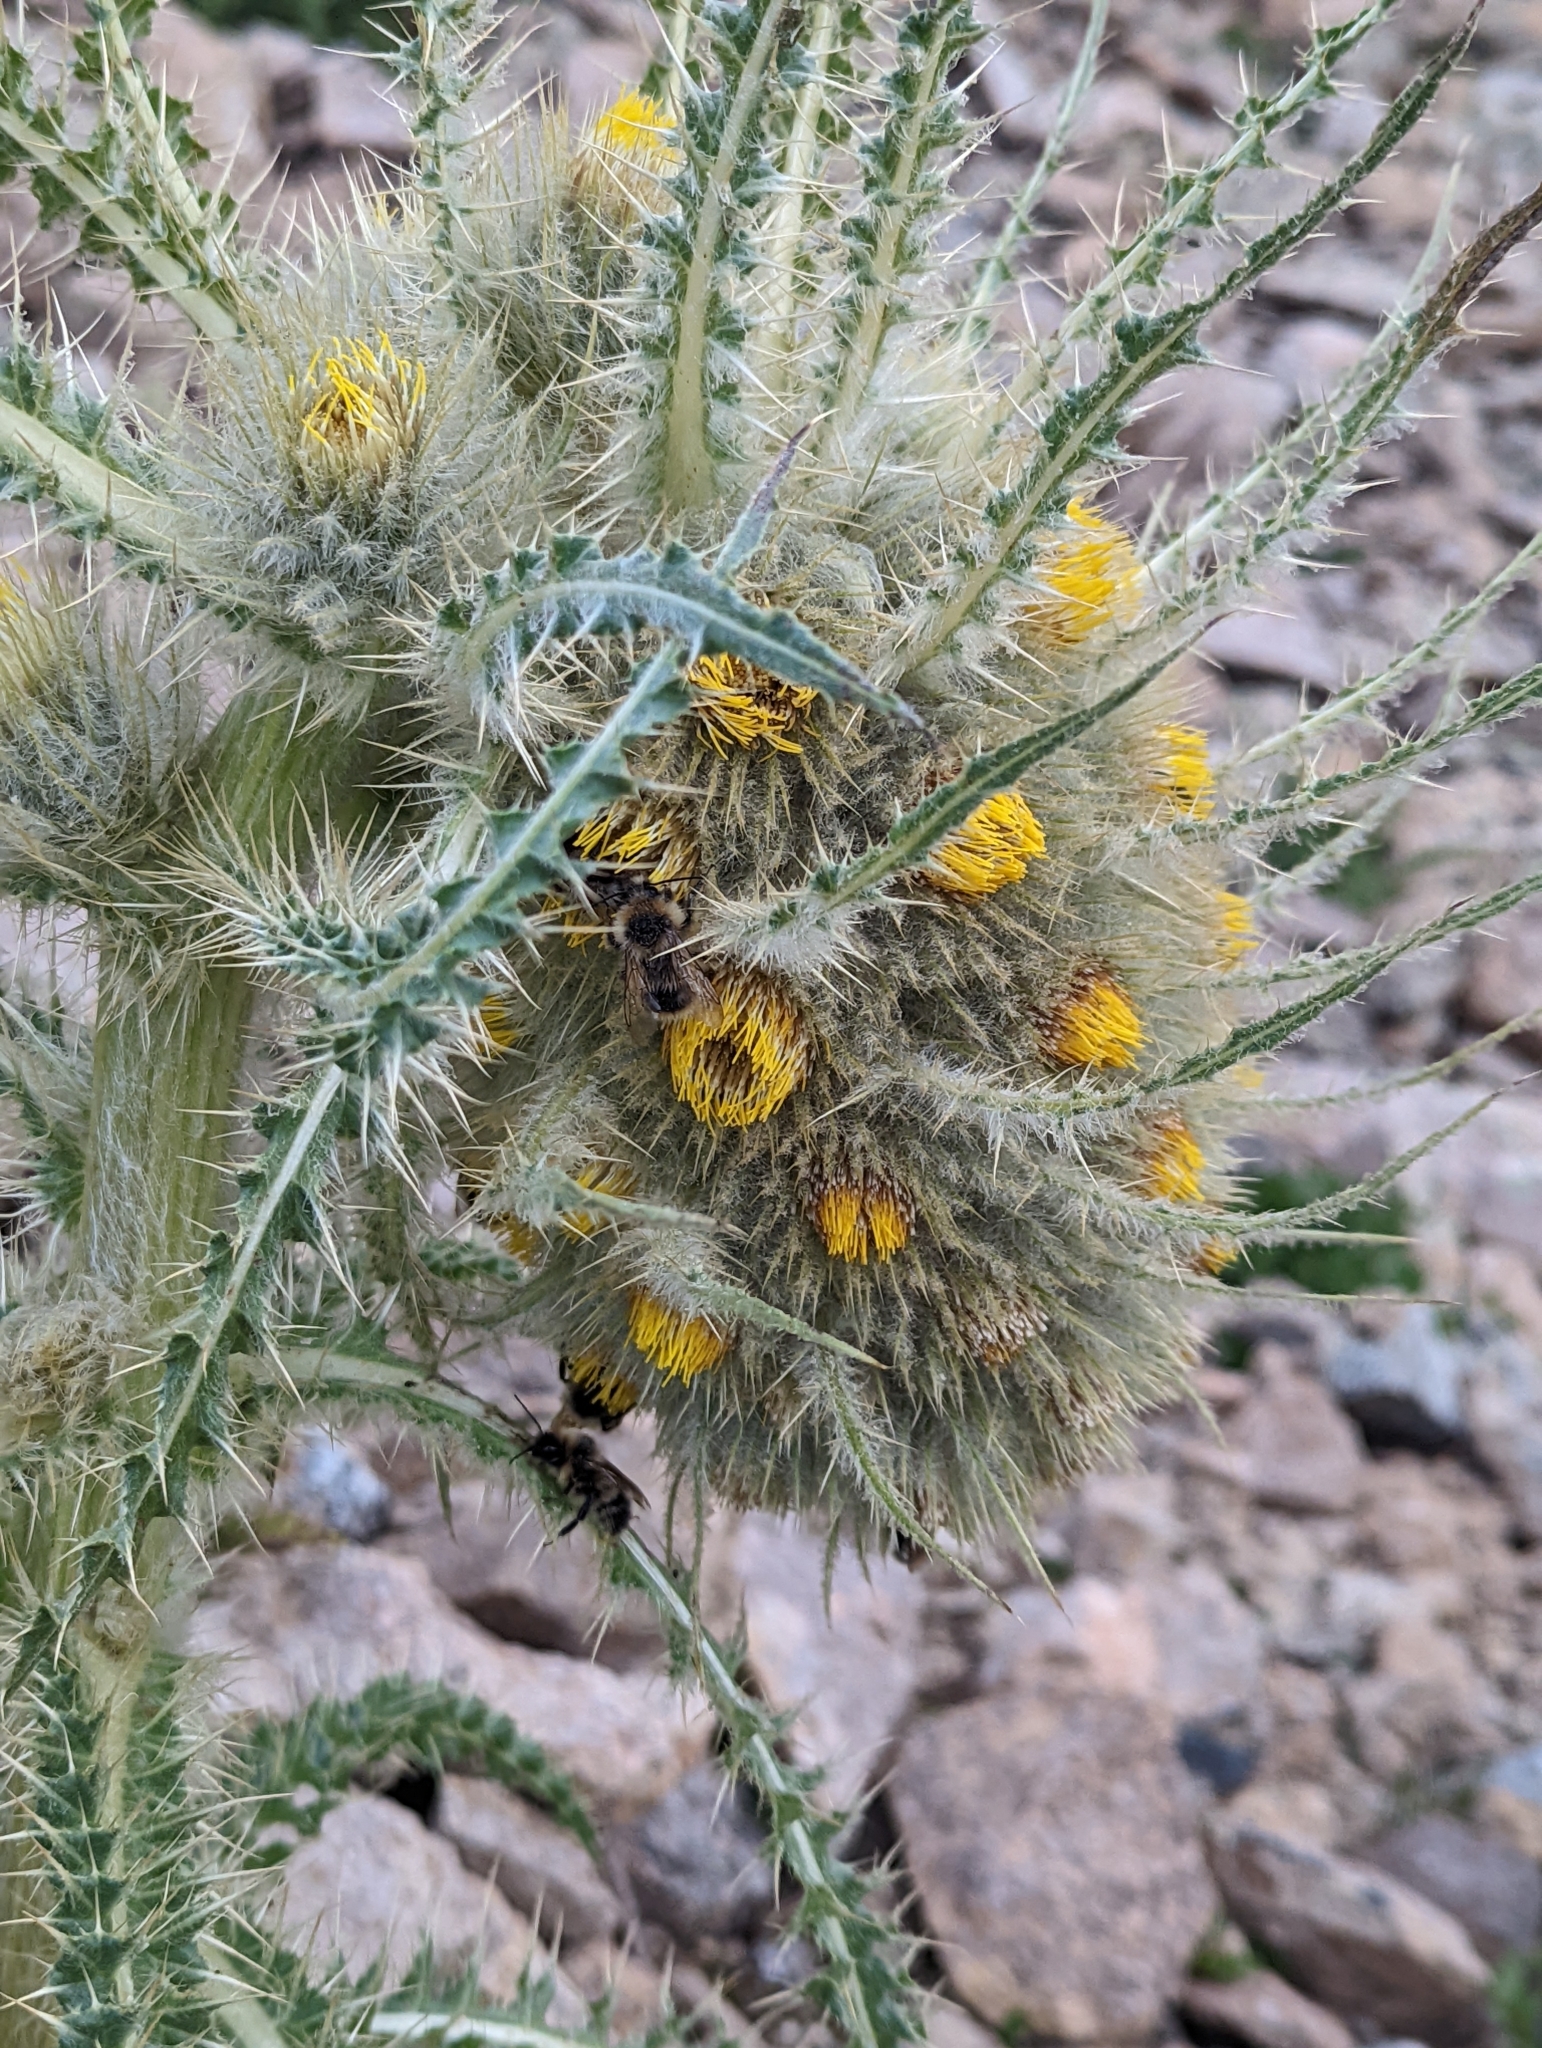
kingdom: Plantae
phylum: Tracheophyta
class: Magnoliopsida
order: Asterales
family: Asteraceae
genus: Cirsium
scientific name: Cirsium funkiae
